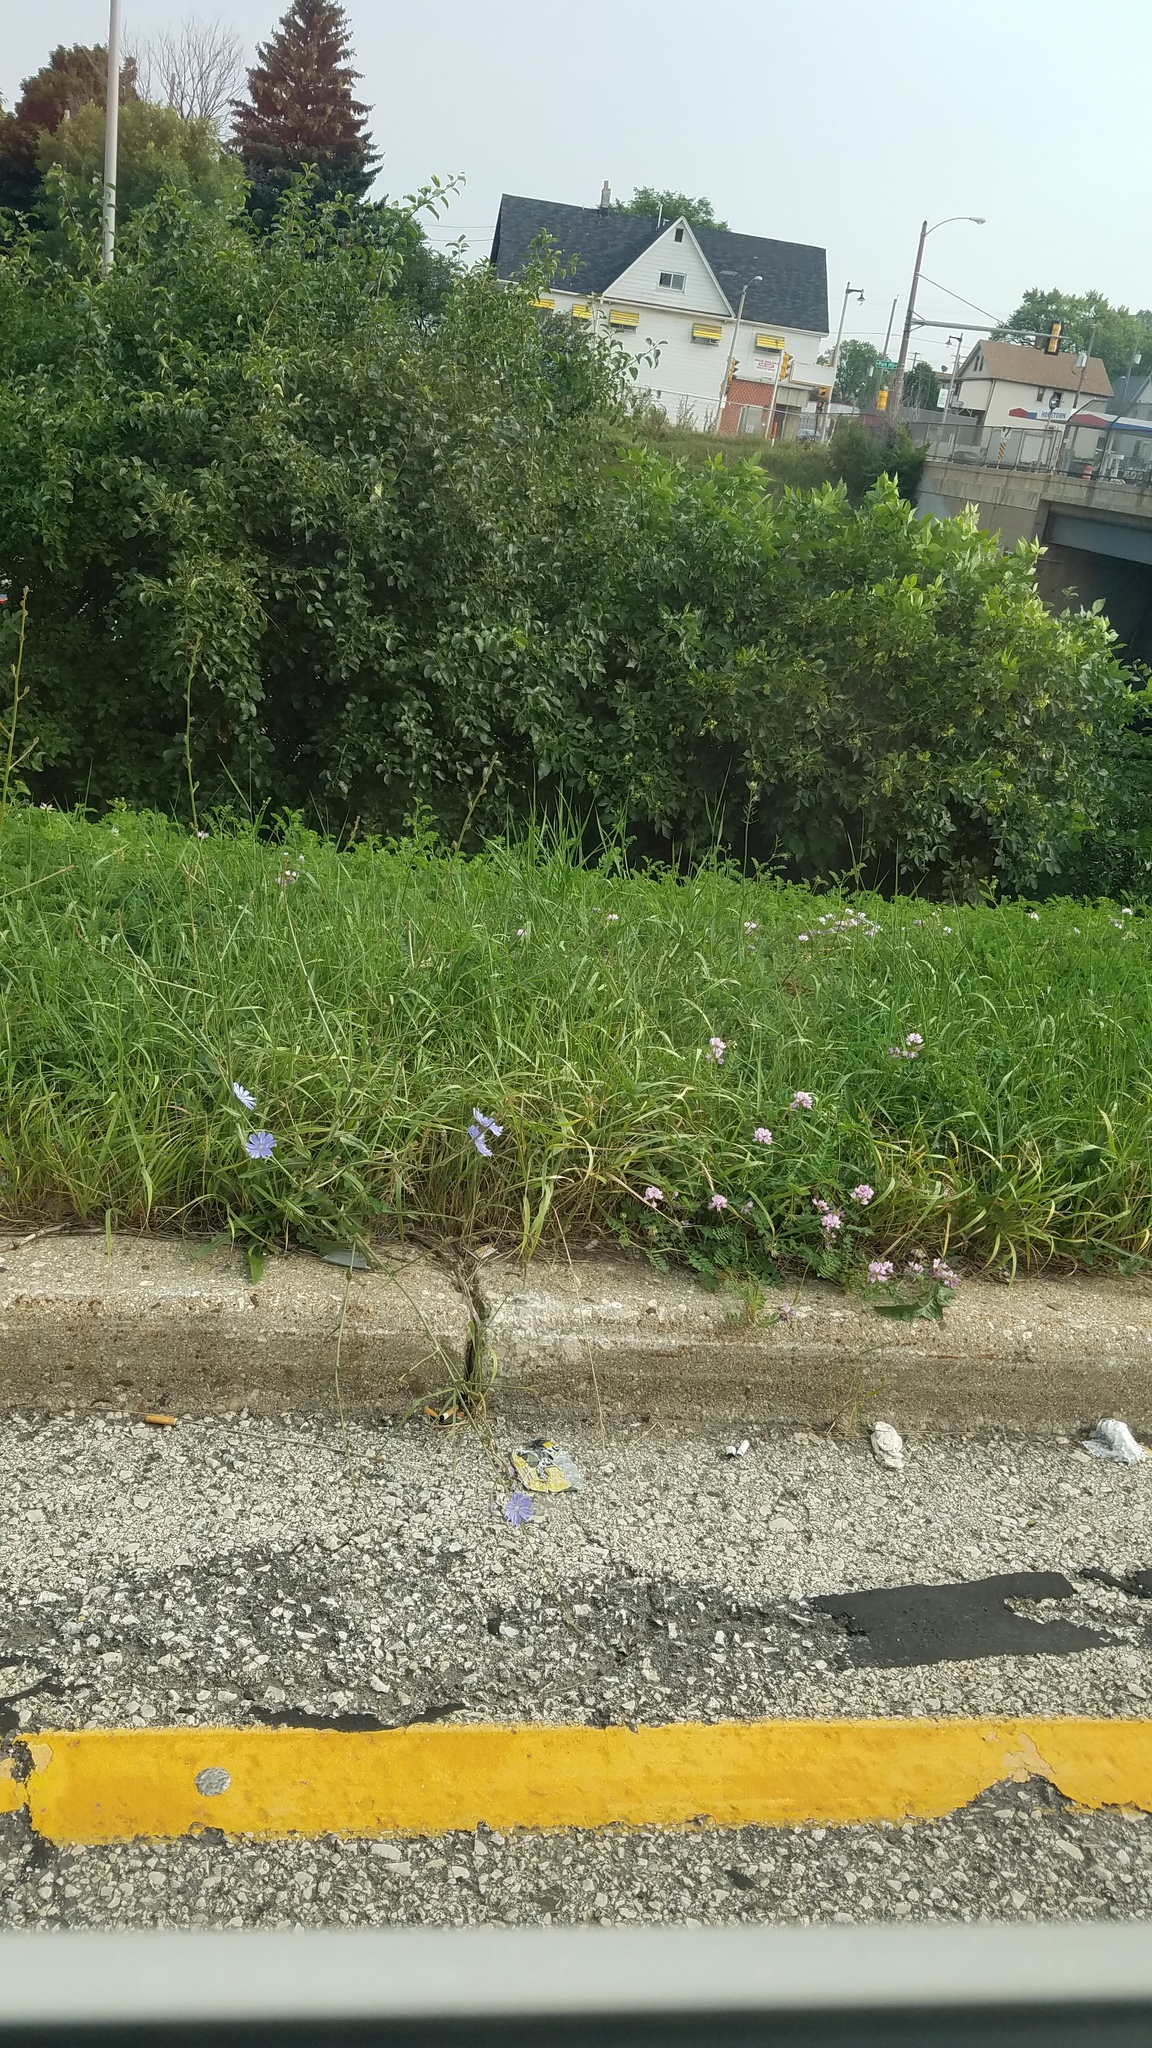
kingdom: Plantae
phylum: Tracheophyta
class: Magnoliopsida
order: Fabales
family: Fabaceae
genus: Coronilla
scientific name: Coronilla varia
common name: Crownvetch
